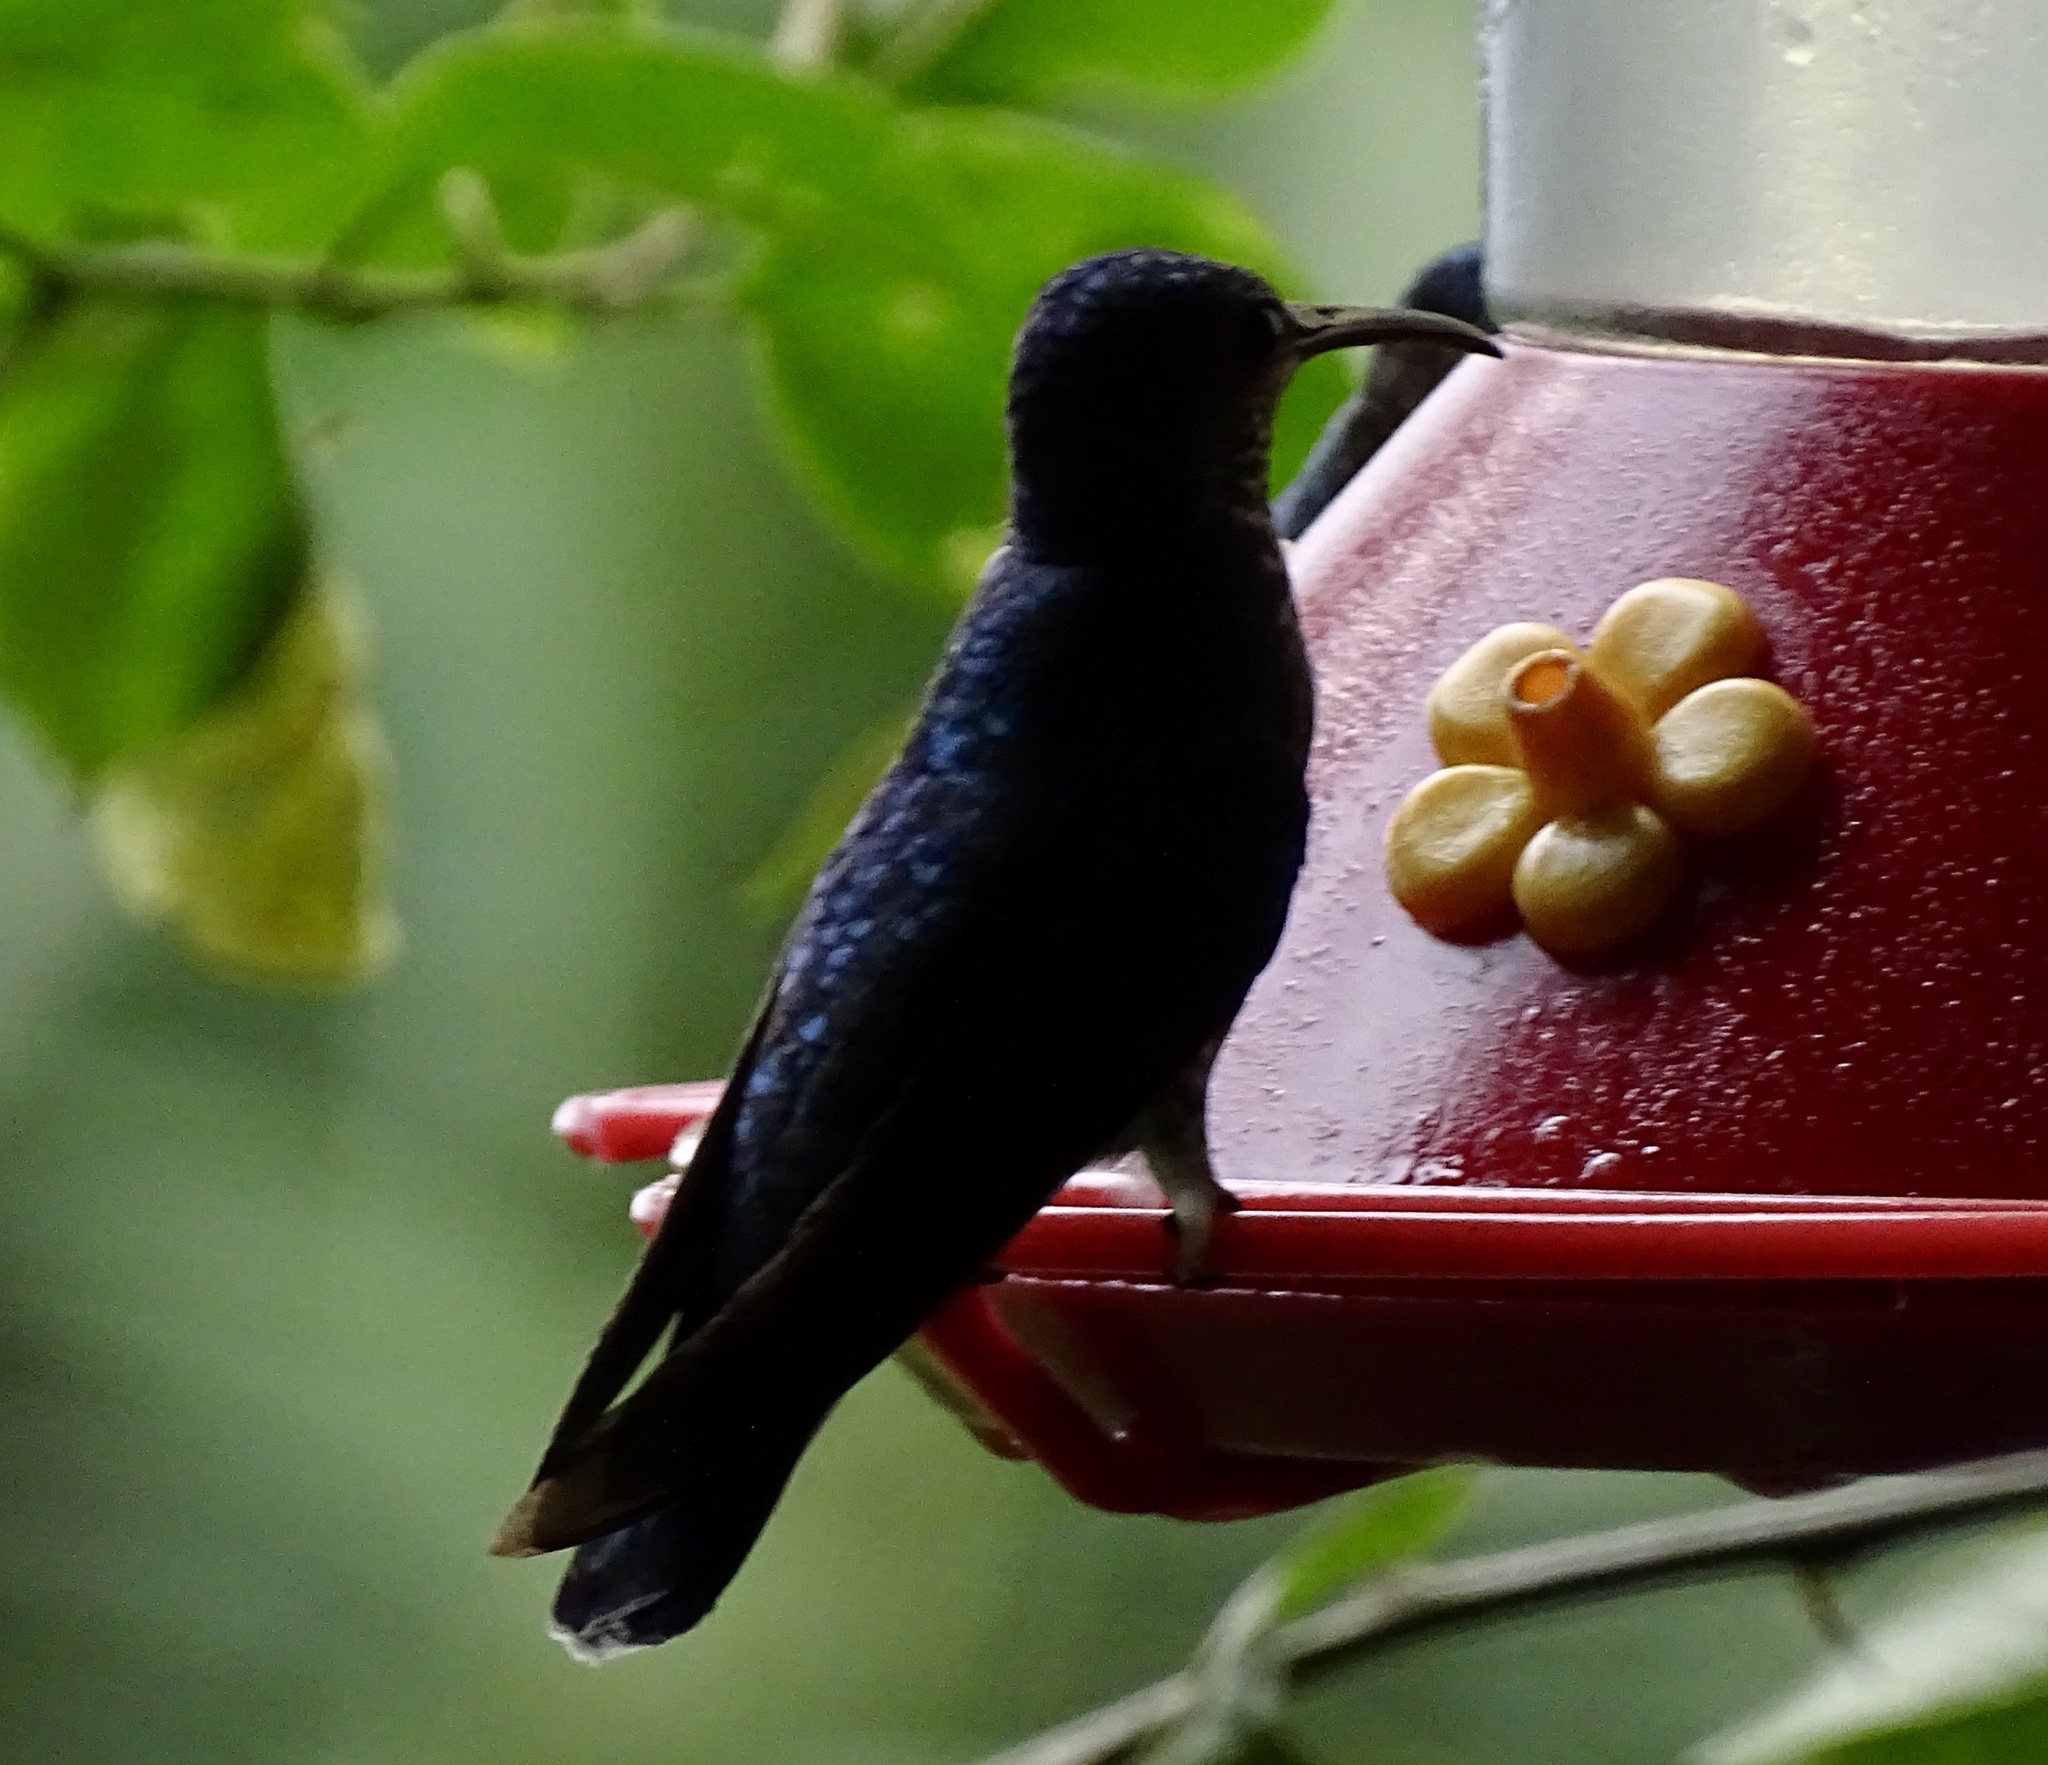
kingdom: Animalia
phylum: Chordata
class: Aves
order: Apodiformes
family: Trochilidae
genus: Campylopterus
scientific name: Campylopterus hemileucurus
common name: Violet sabrewing
